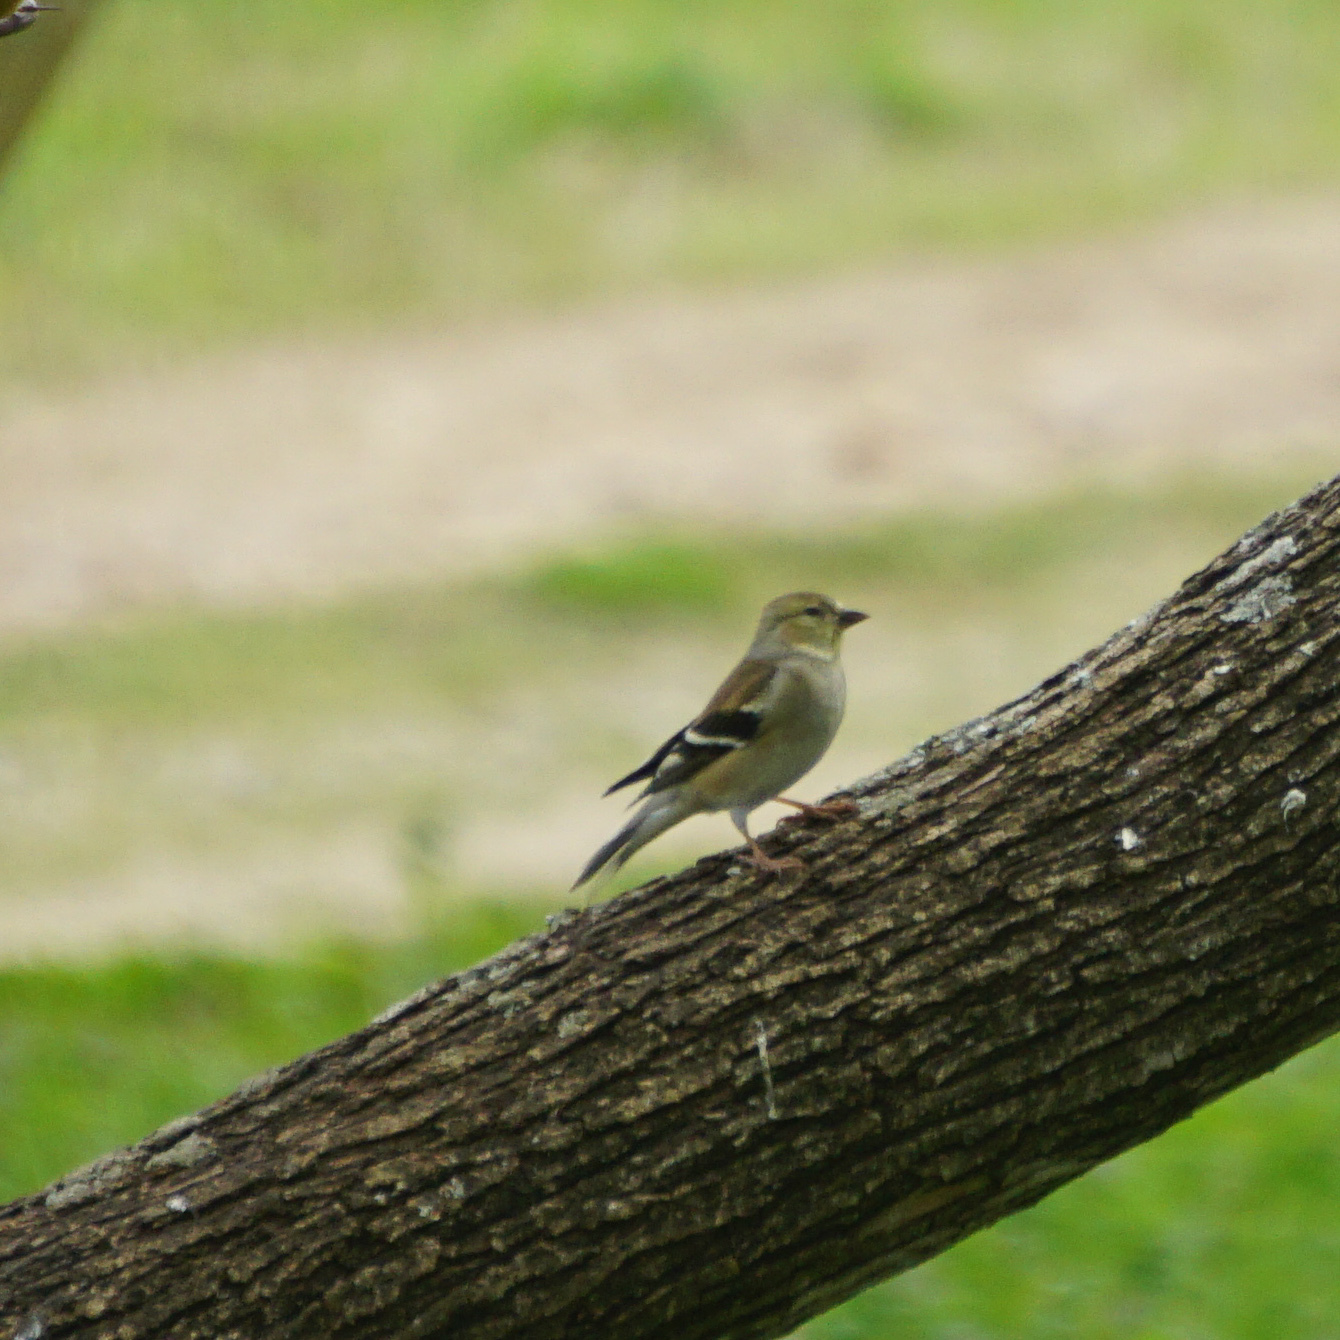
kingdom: Animalia
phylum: Chordata
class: Aves
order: Passeriformes
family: Fringillidae
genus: Spinus
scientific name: Spinus tristis
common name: American goldfinch
